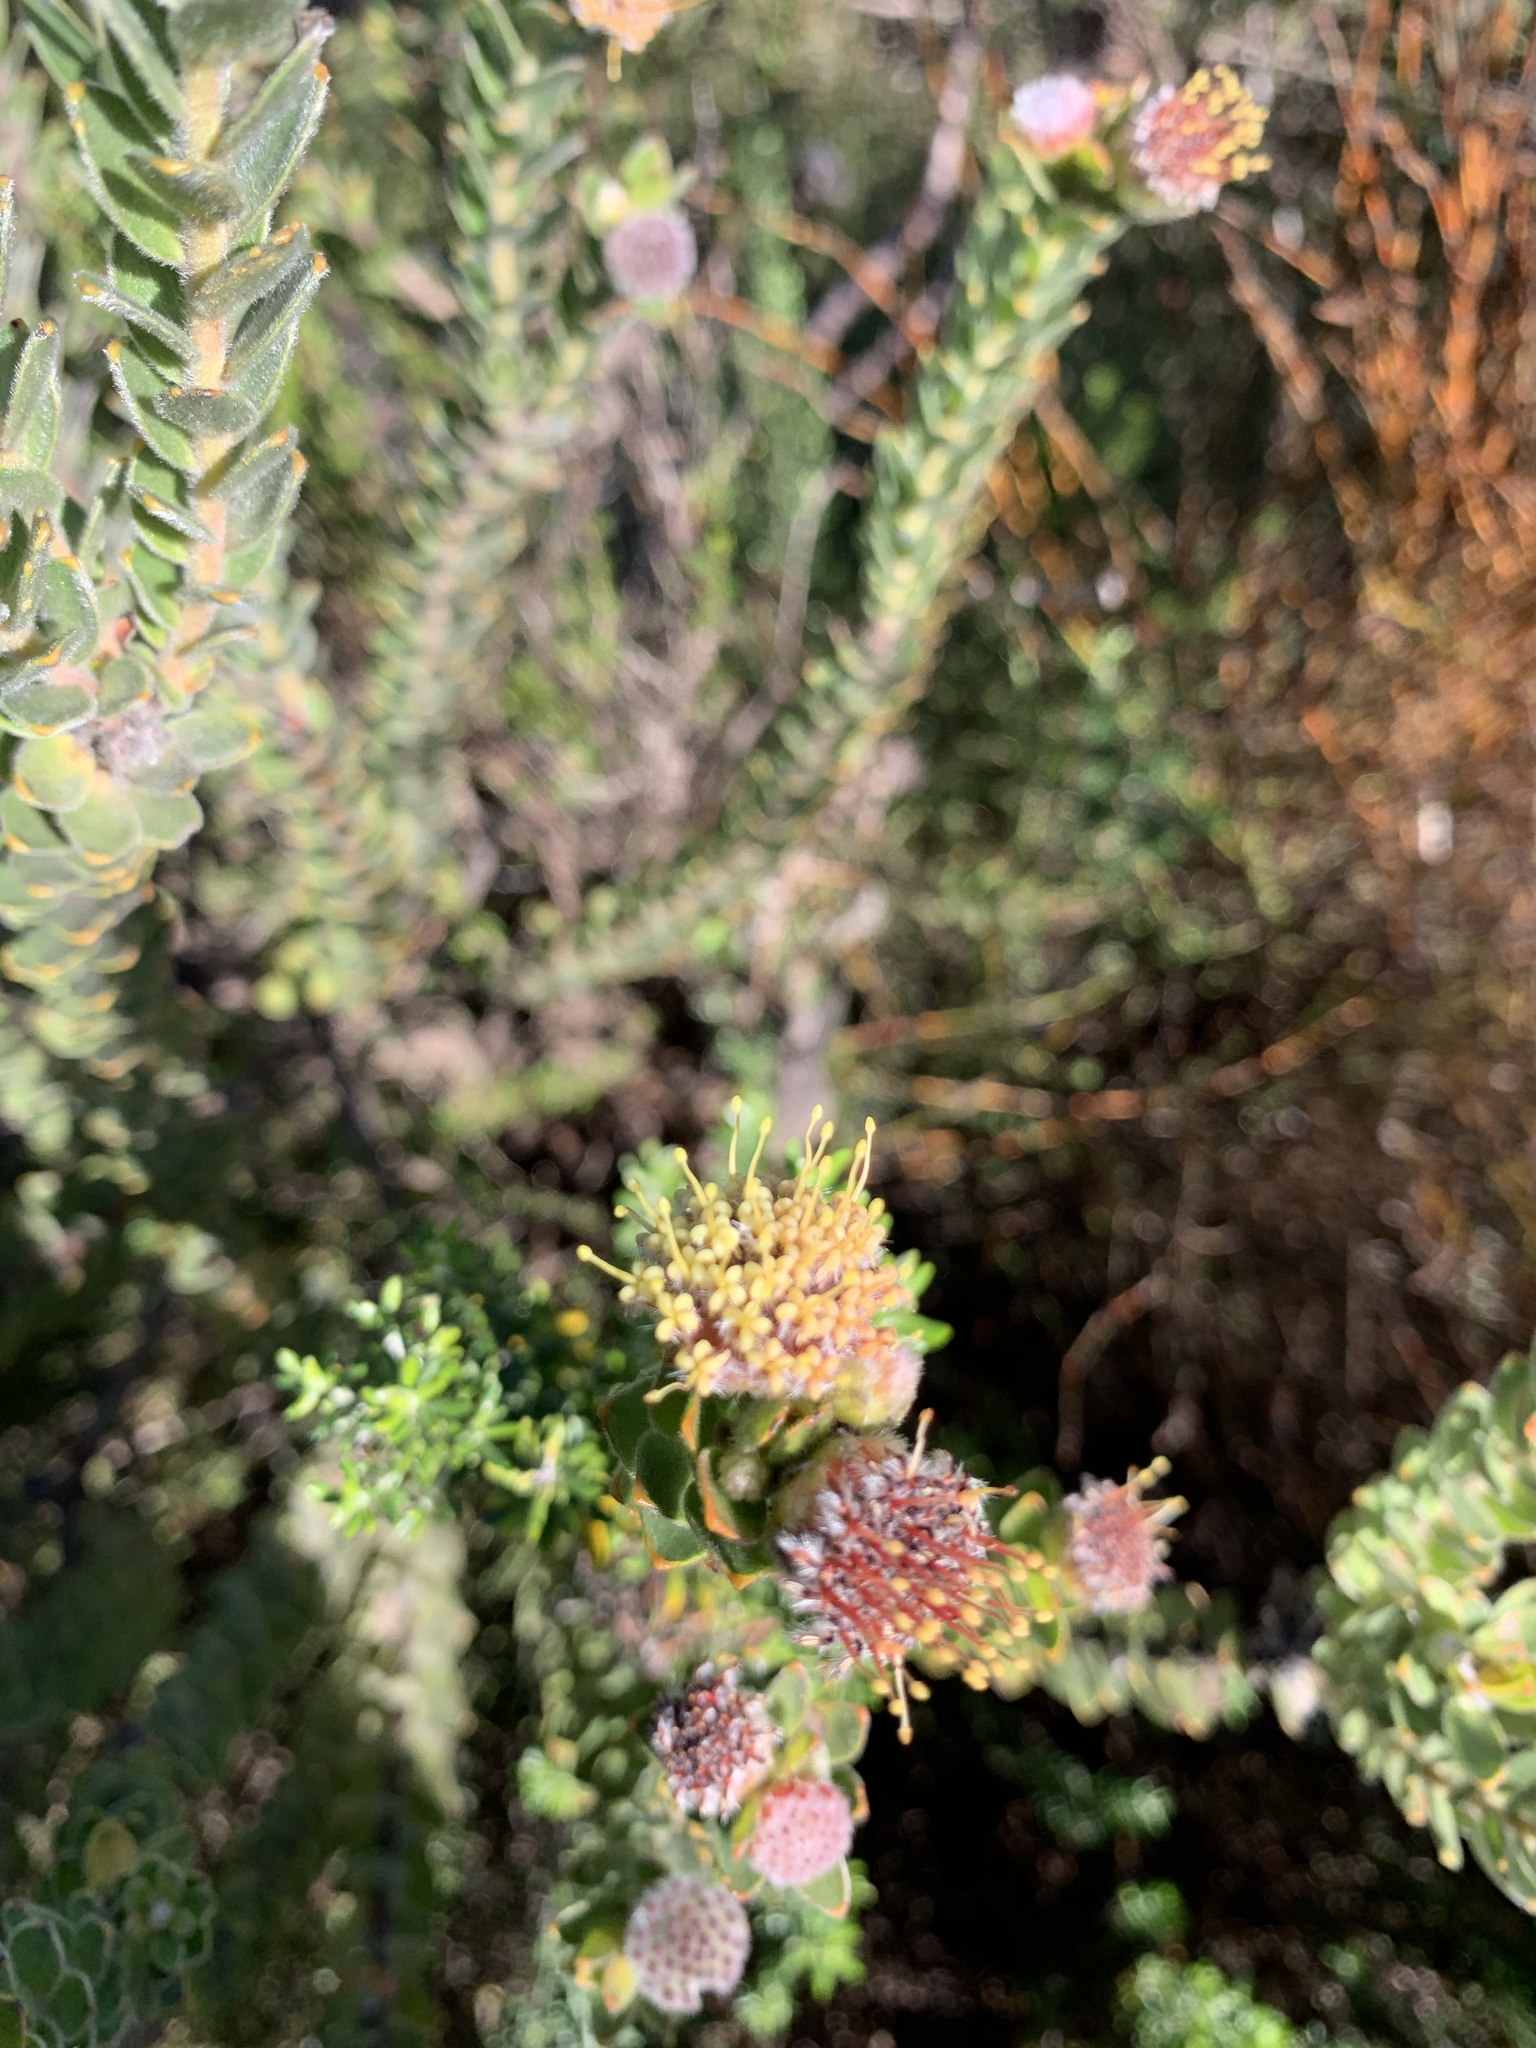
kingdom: Plantae
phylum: Tracheophyta
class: Magnoliopsida
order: Proteales
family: Proteaceae
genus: Leucospermum
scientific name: Leucospermum truncatulum
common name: Oval-leaf pincushion
